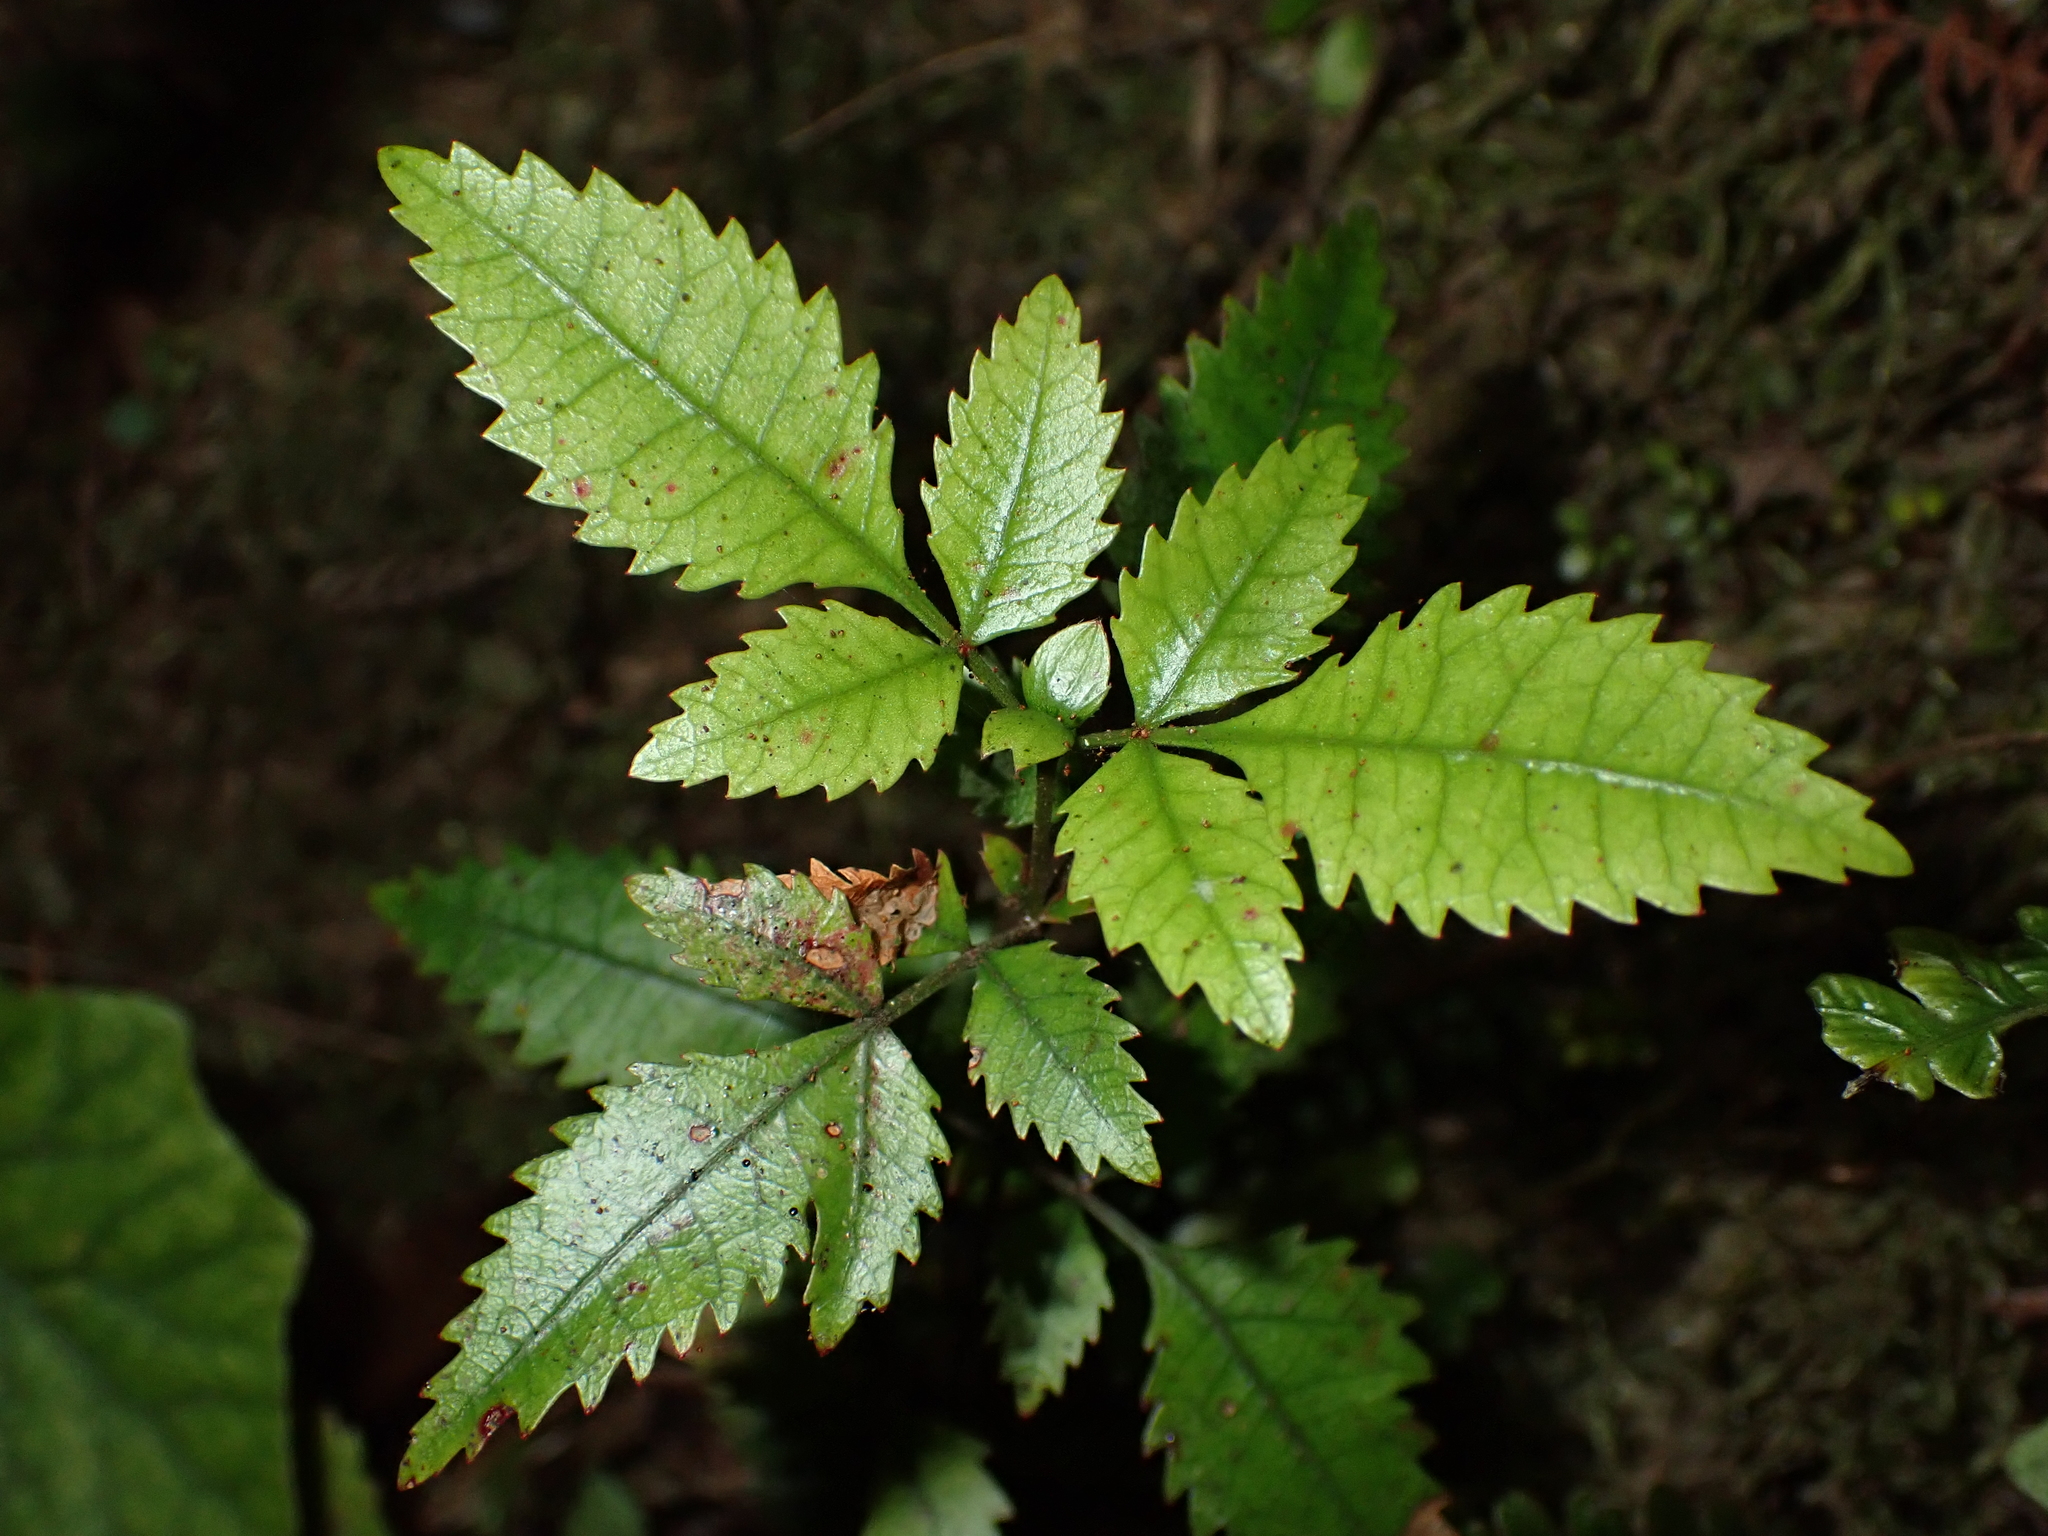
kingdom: Plantae
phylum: Tracheophyta
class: Magnoliopsida
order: Oxalidales
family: Cunoniaceae
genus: Pterophylla
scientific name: Pterophylla racemosa
